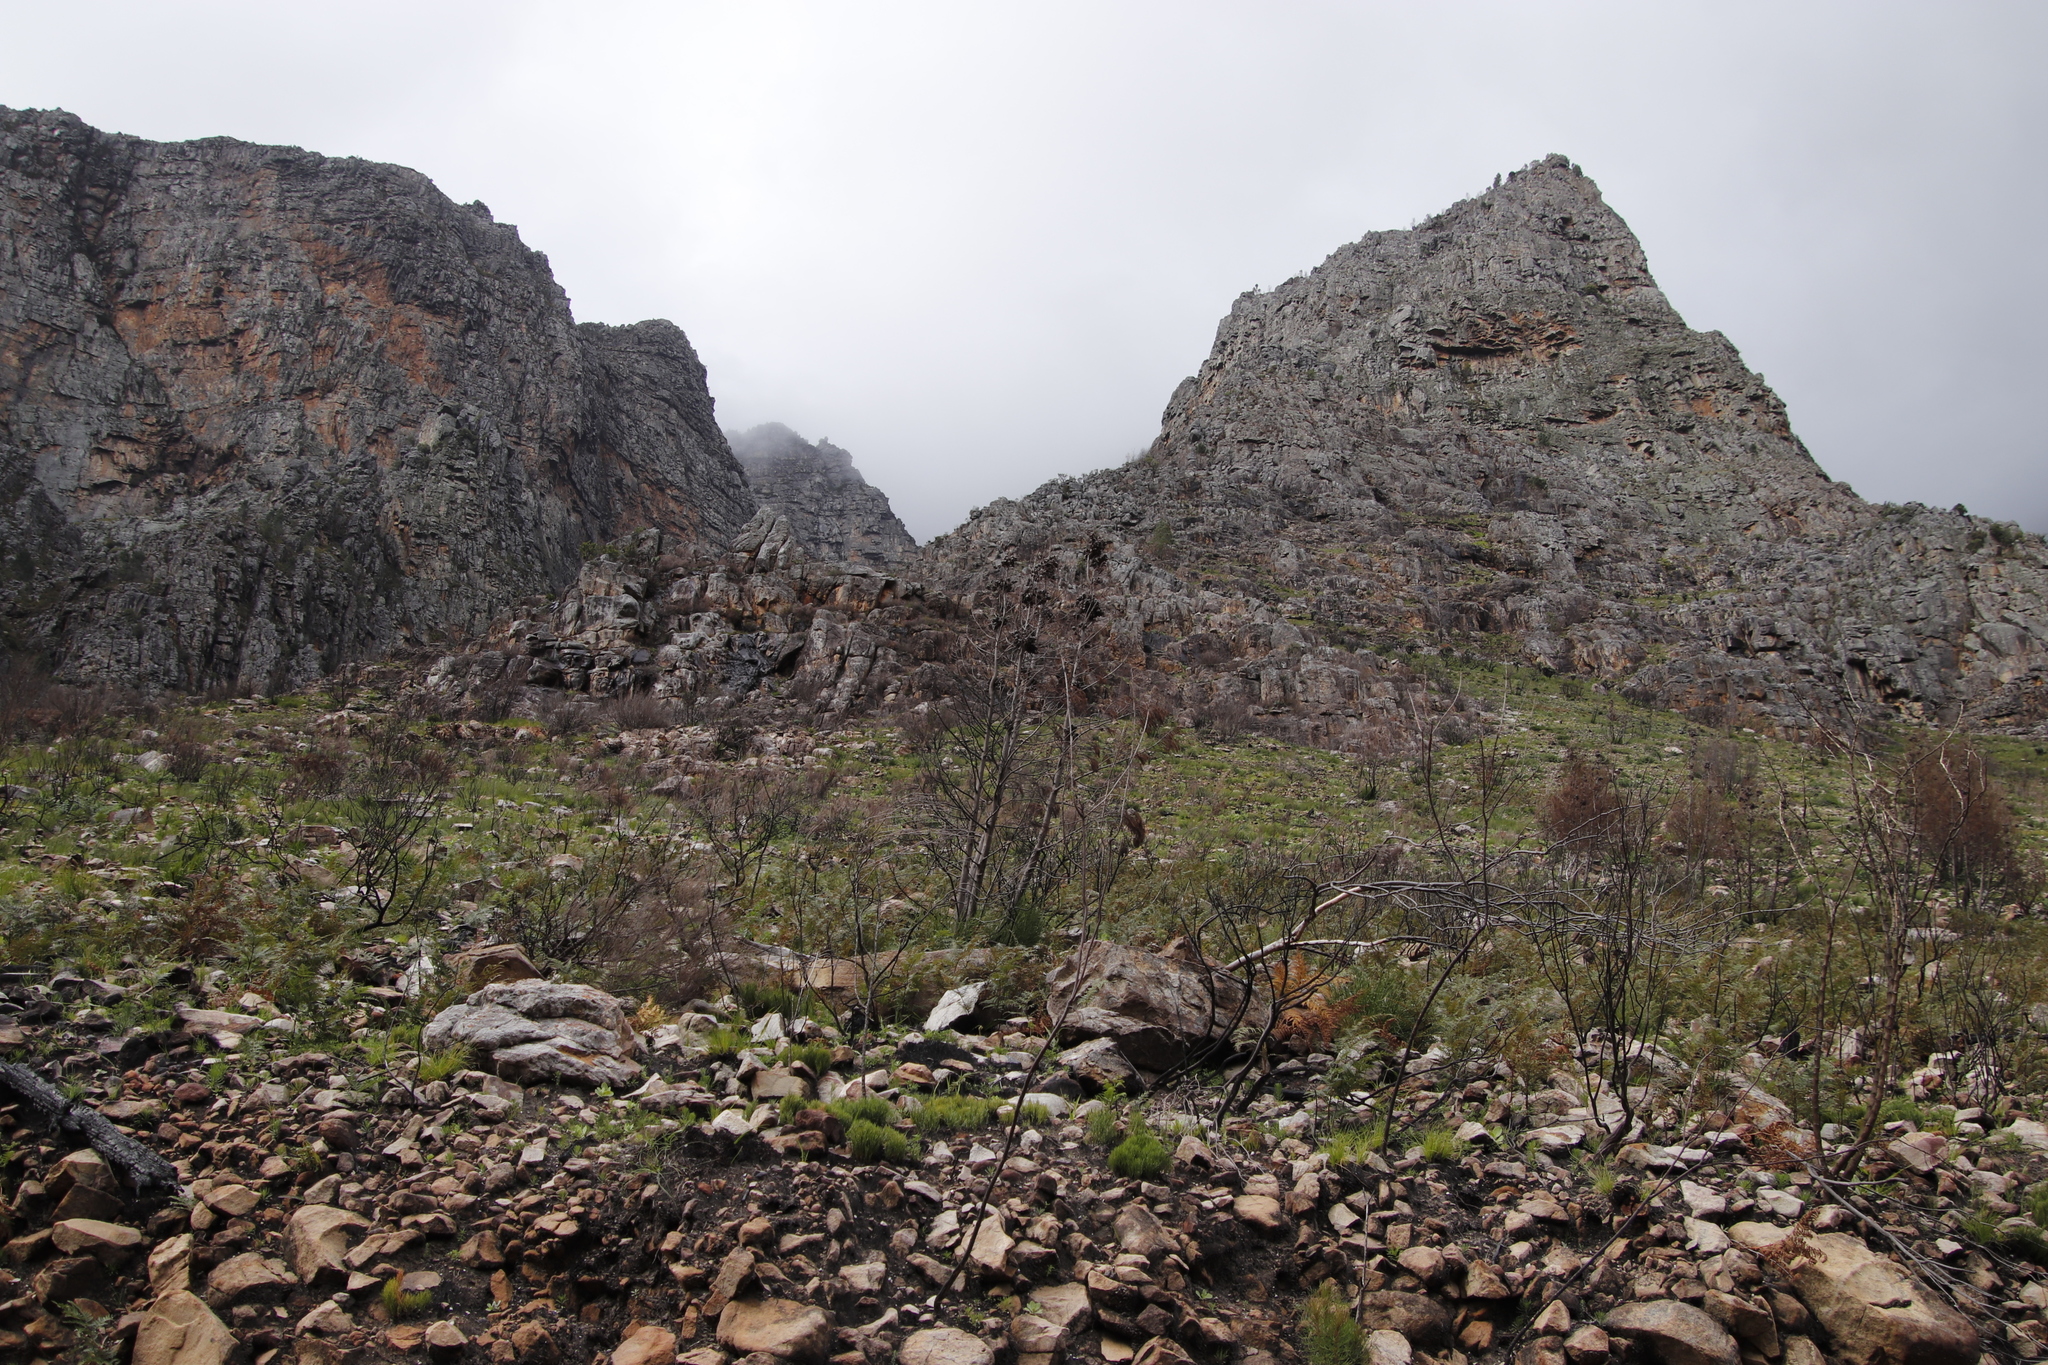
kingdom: Plantae
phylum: Tracheophyta
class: Pinopsida
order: Pinales
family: Cupressaceae
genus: Widdringtonia
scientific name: Widdringtonia nodiflora
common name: Cape cypress
